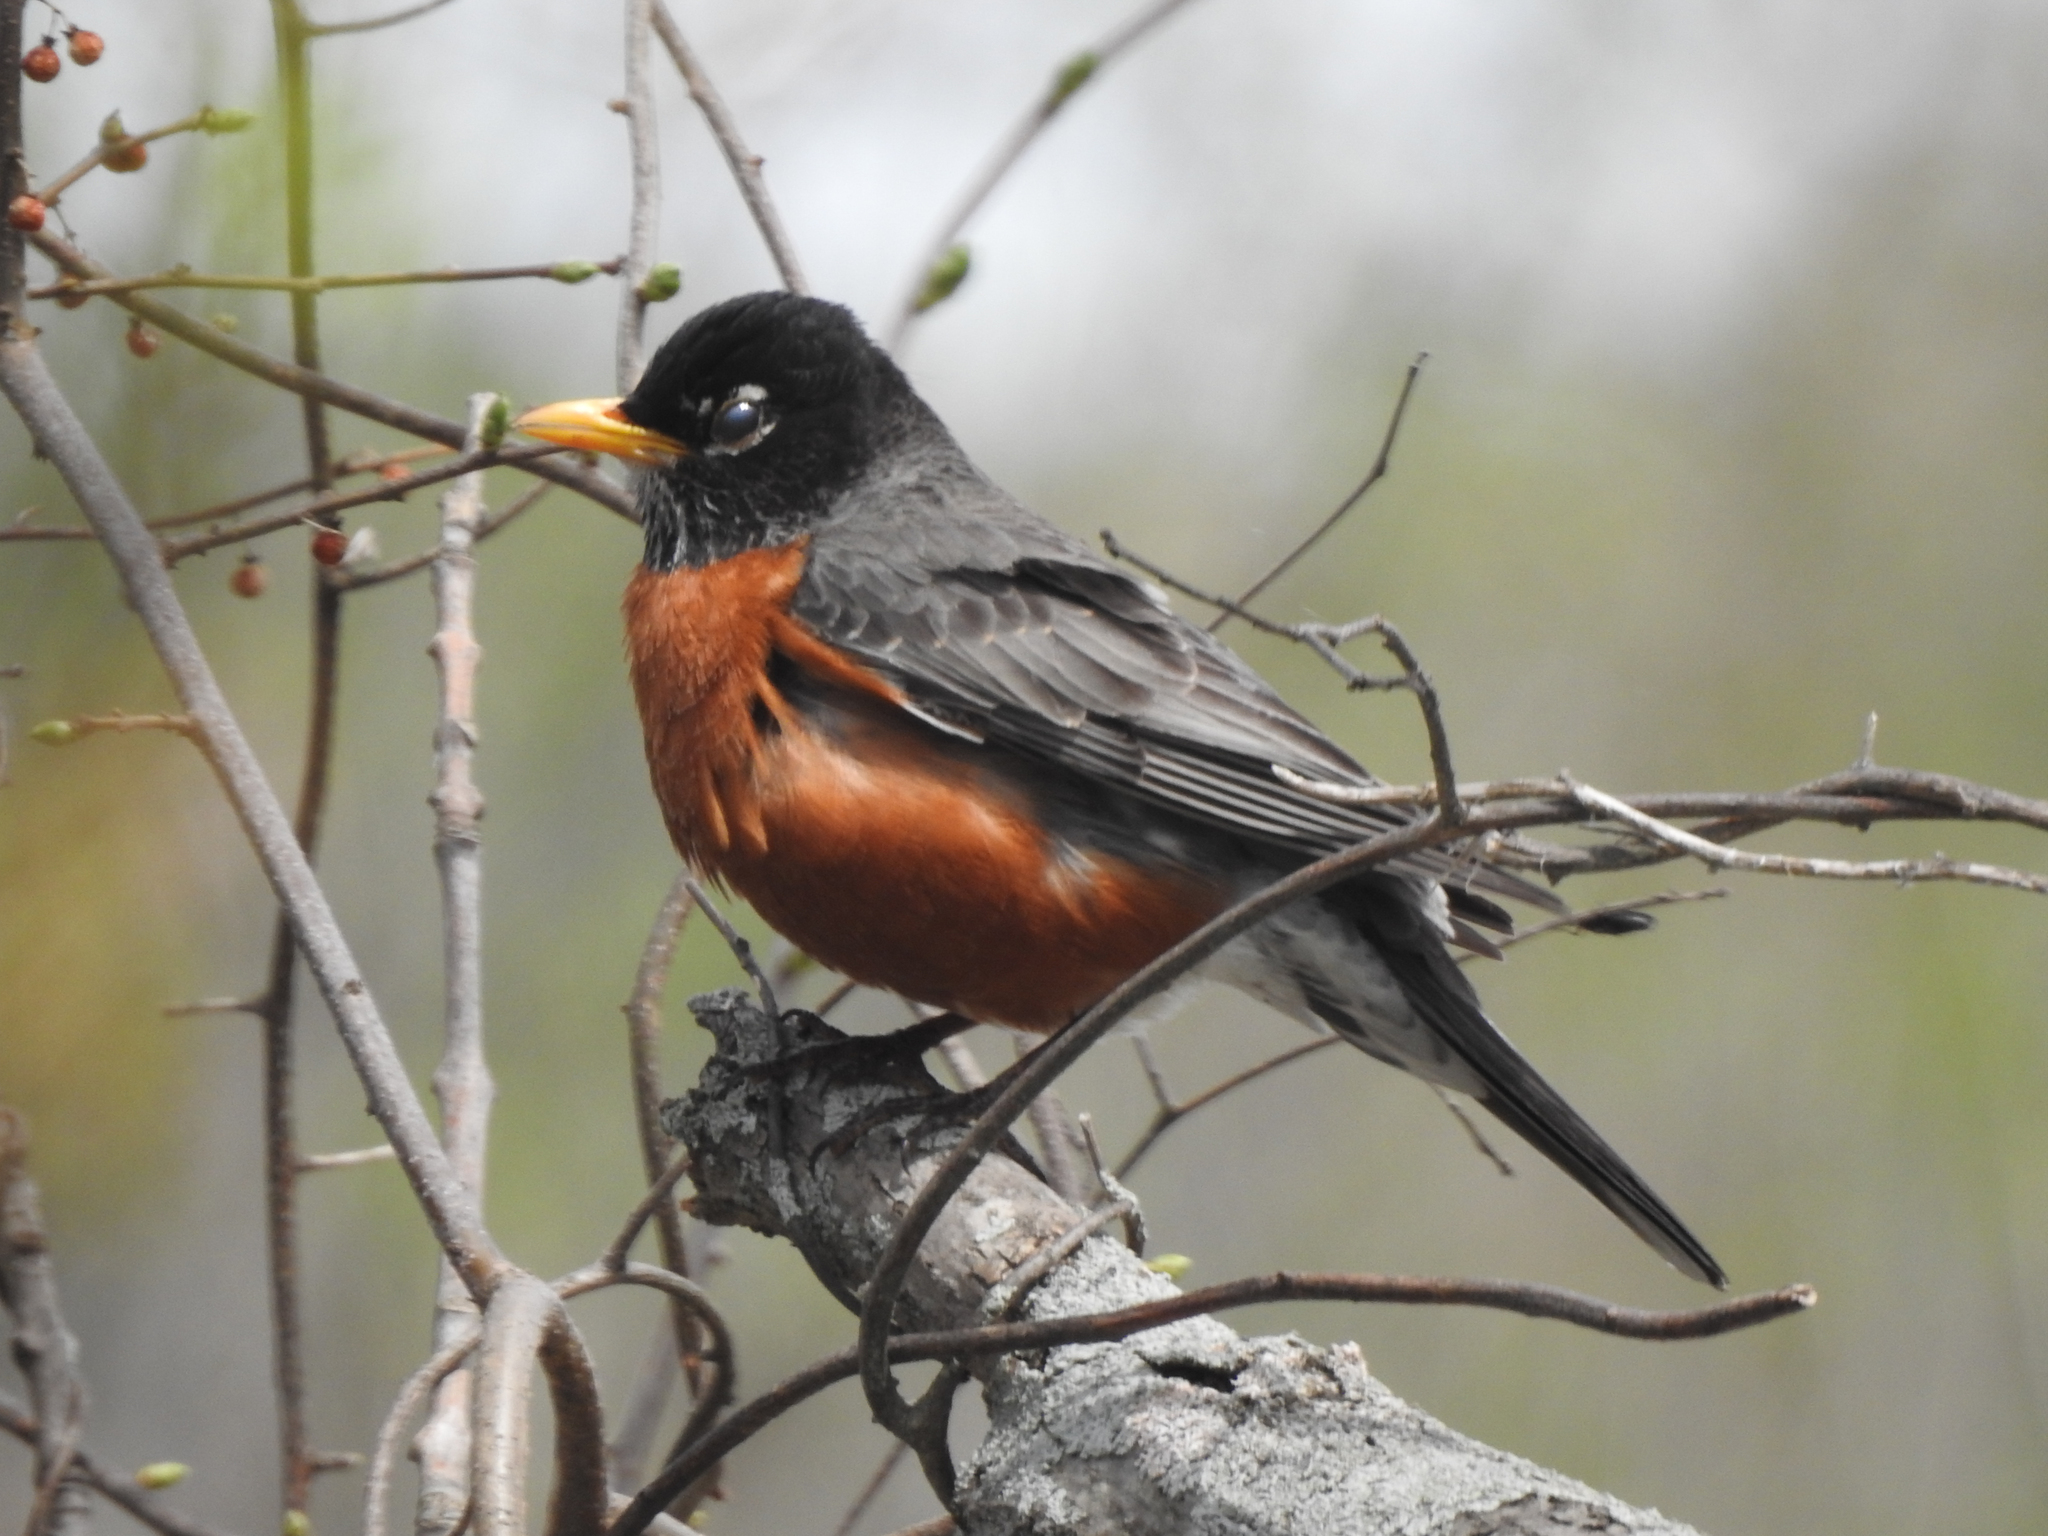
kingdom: Animalia
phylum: Chordata
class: Aves
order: Passeriformes
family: Turdidae
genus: Turdus
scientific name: Turdus migratorius
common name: American robin
